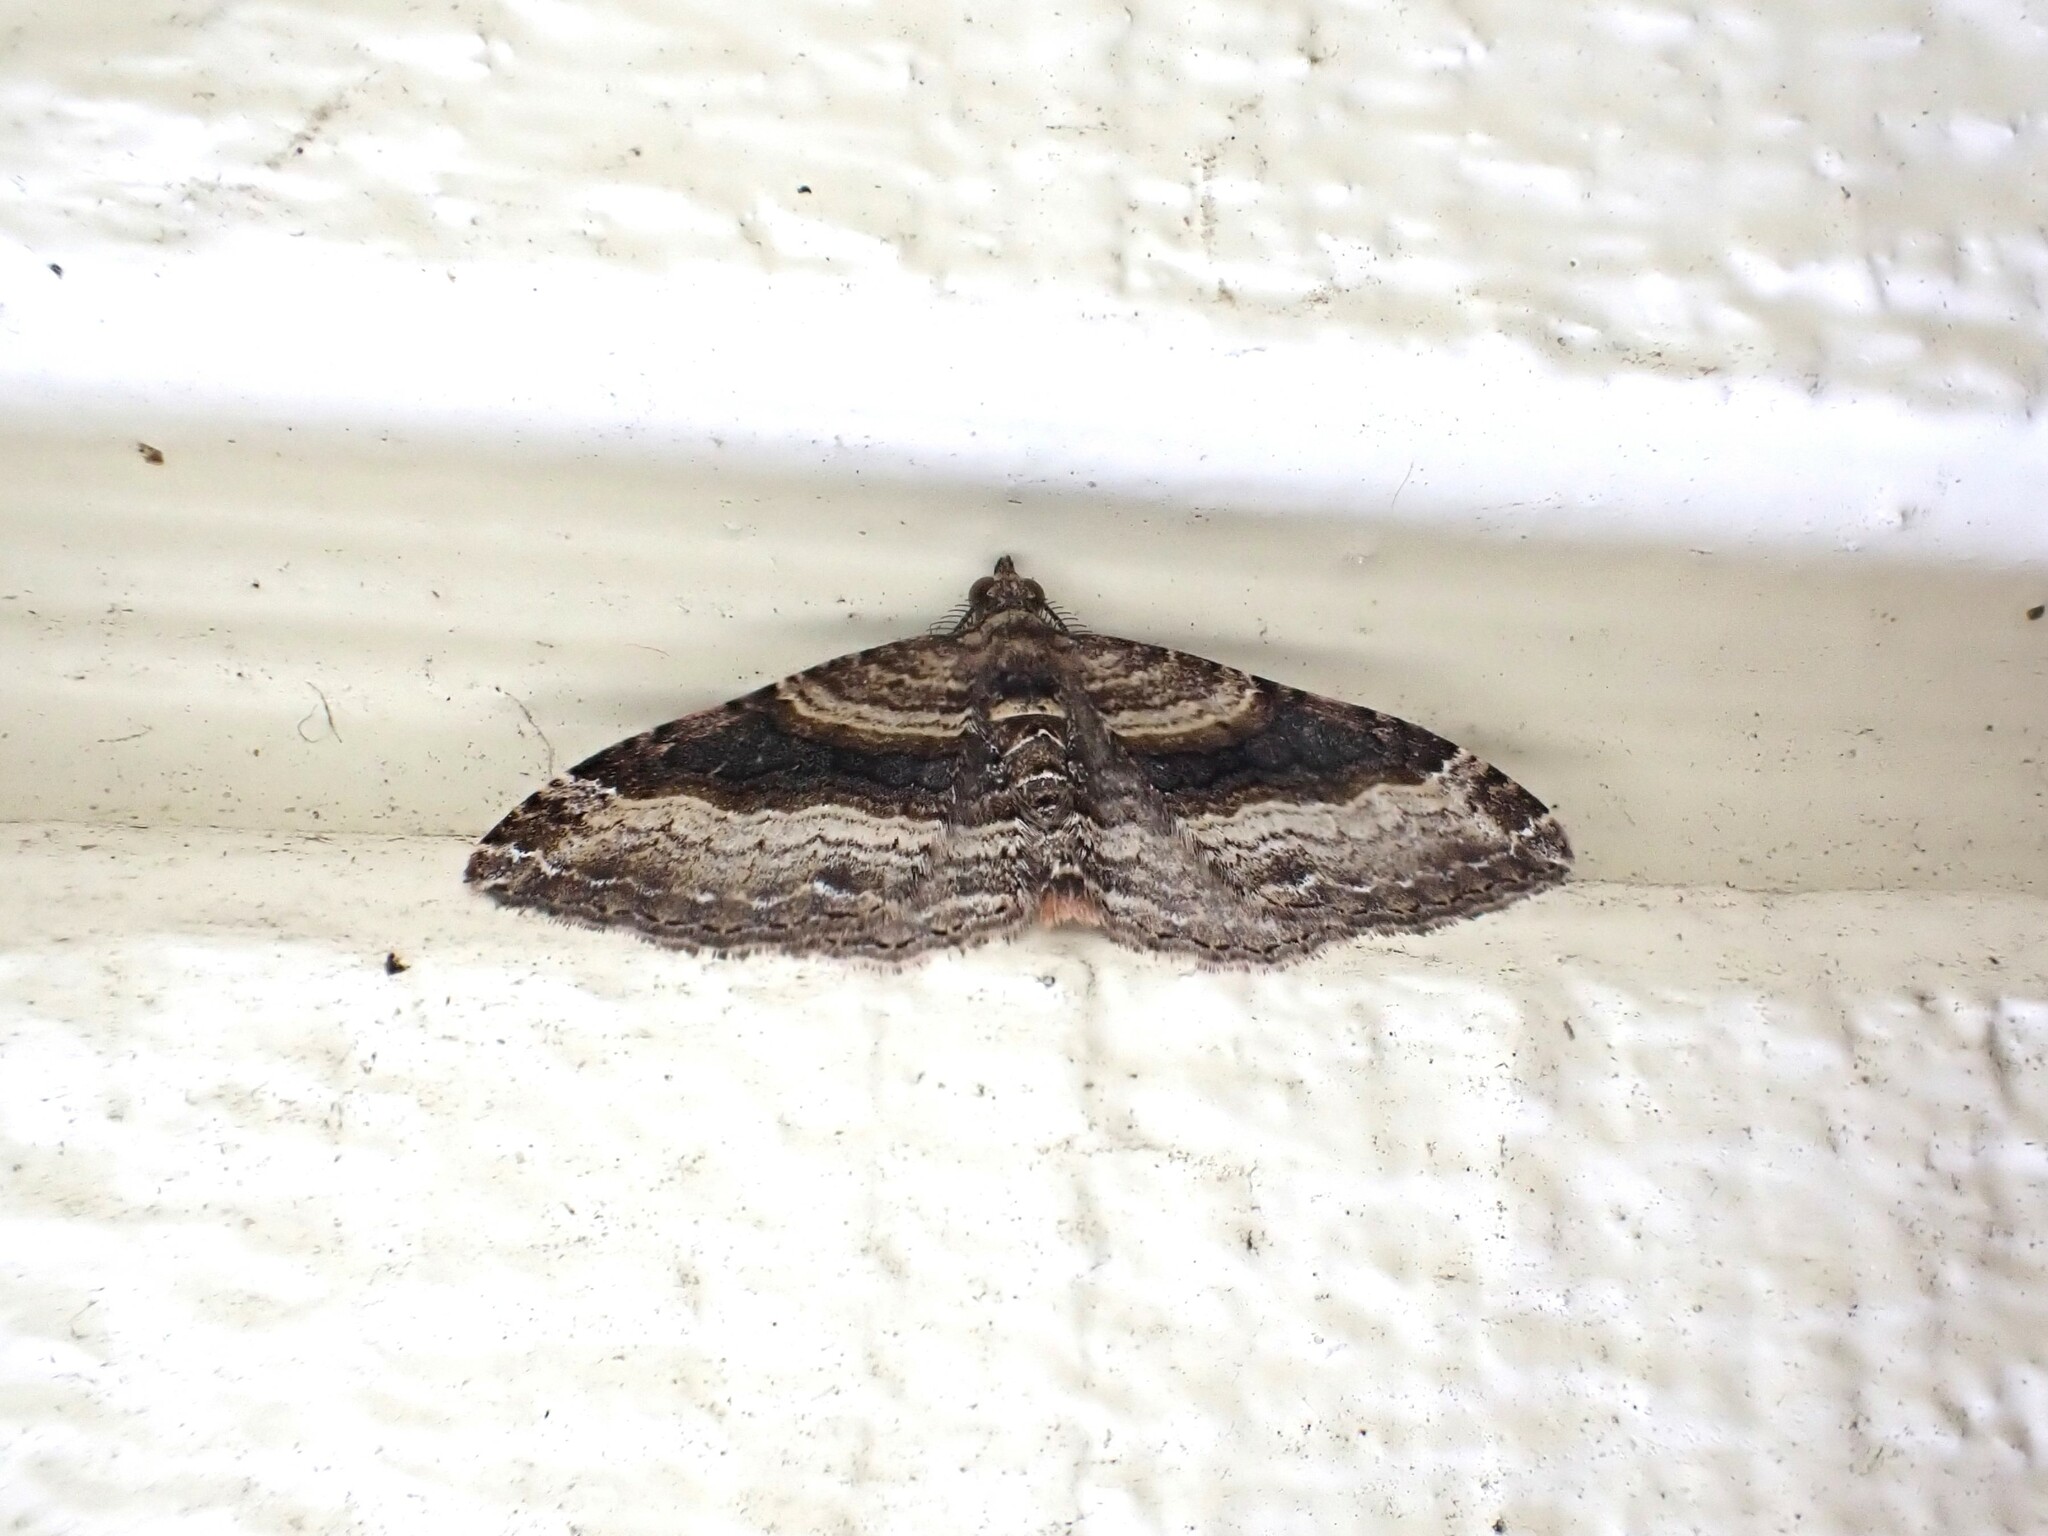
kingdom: Animalia
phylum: Arthropoda
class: Insecta
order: Lepidoptera
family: Geometridae
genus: Epyaxa
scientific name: Epyaxa lucidata
